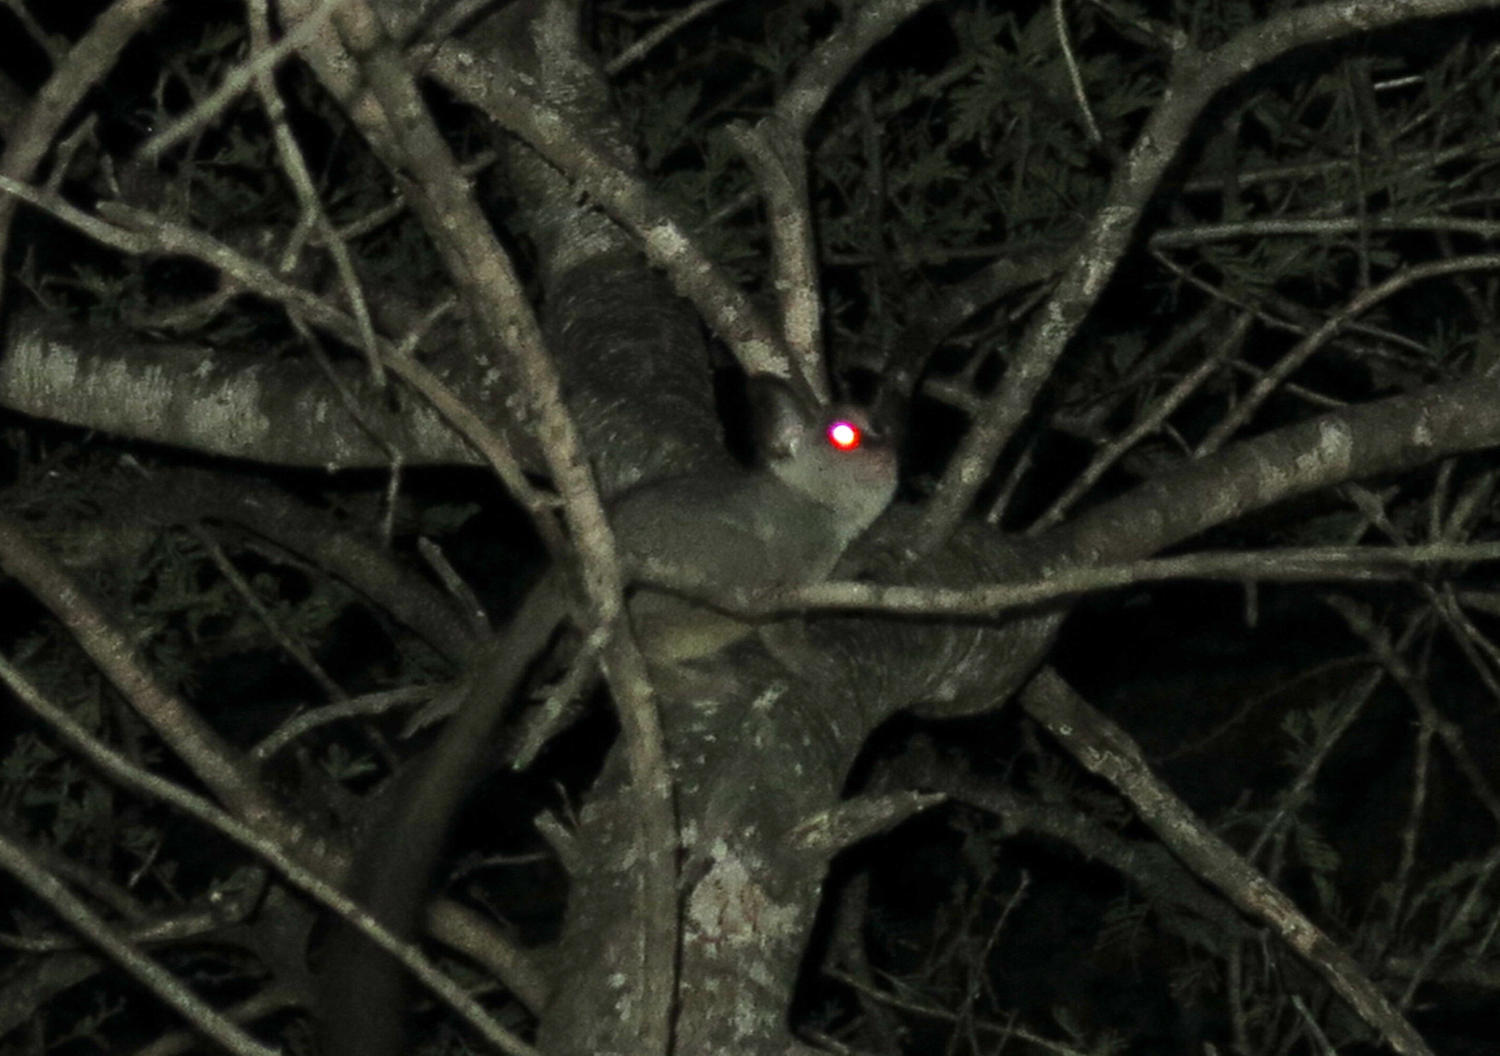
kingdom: Animalia
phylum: Chordata
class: Mammalia
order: Primates
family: Galagidae
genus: Galago
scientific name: Galago moholi
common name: Moholi bushbaby
